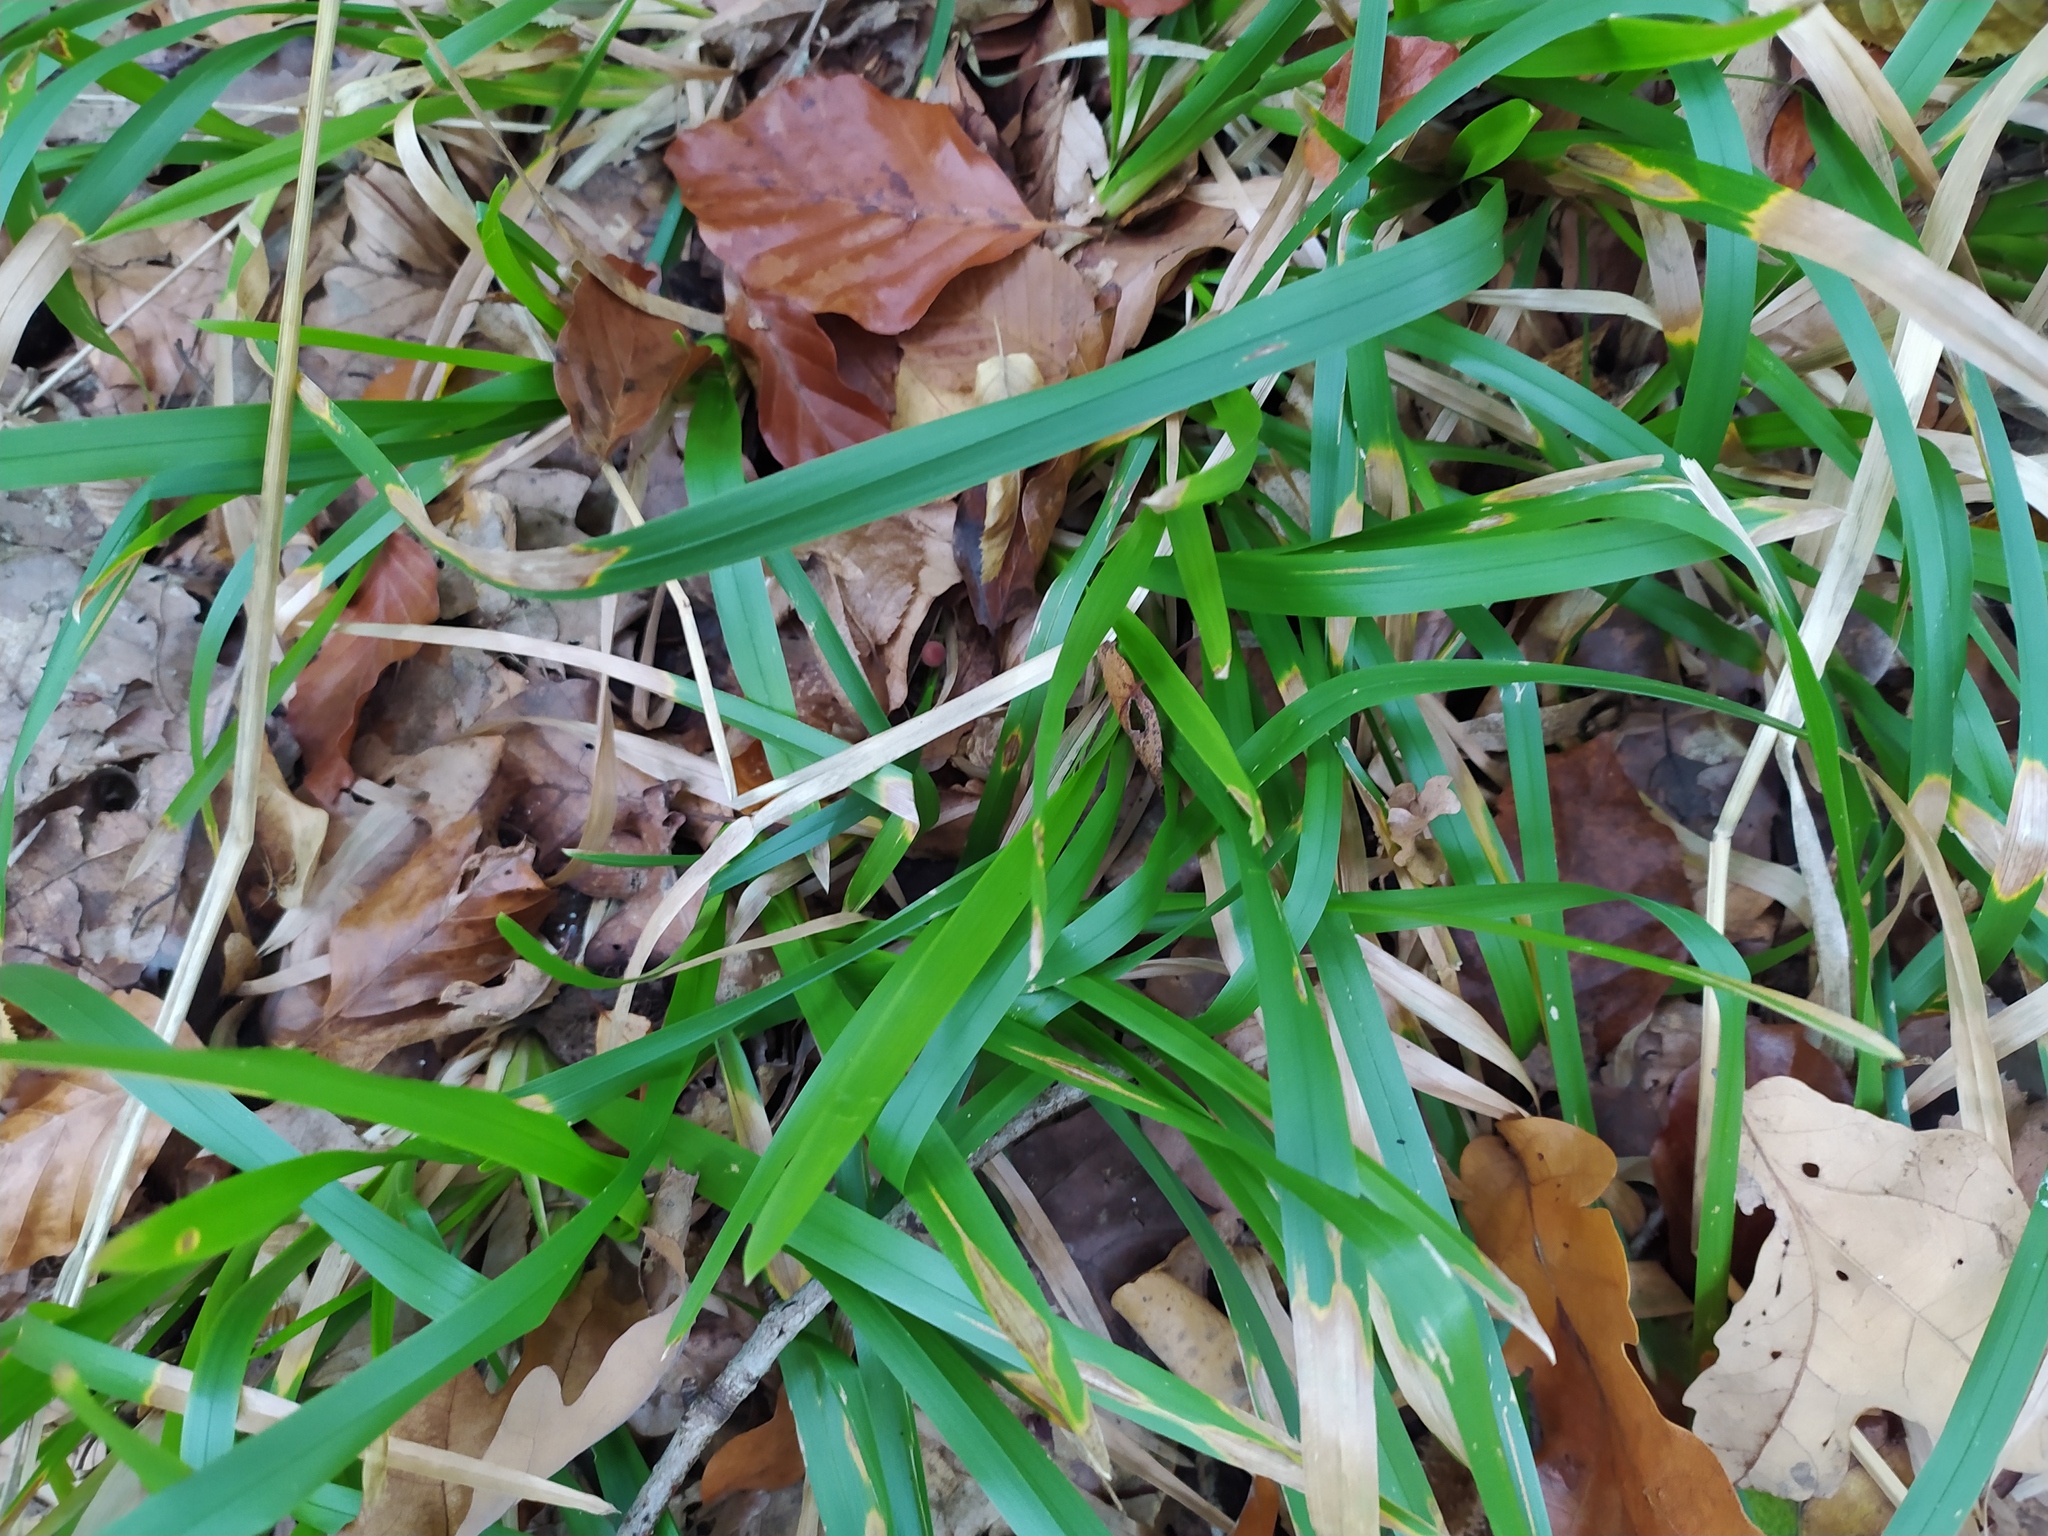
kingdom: Plantae
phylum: Tracheophyta
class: Liliopsida
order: Poales
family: Poaceae
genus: Poa
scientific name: Poa chaixii
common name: Broad-leaved meadow-grass
